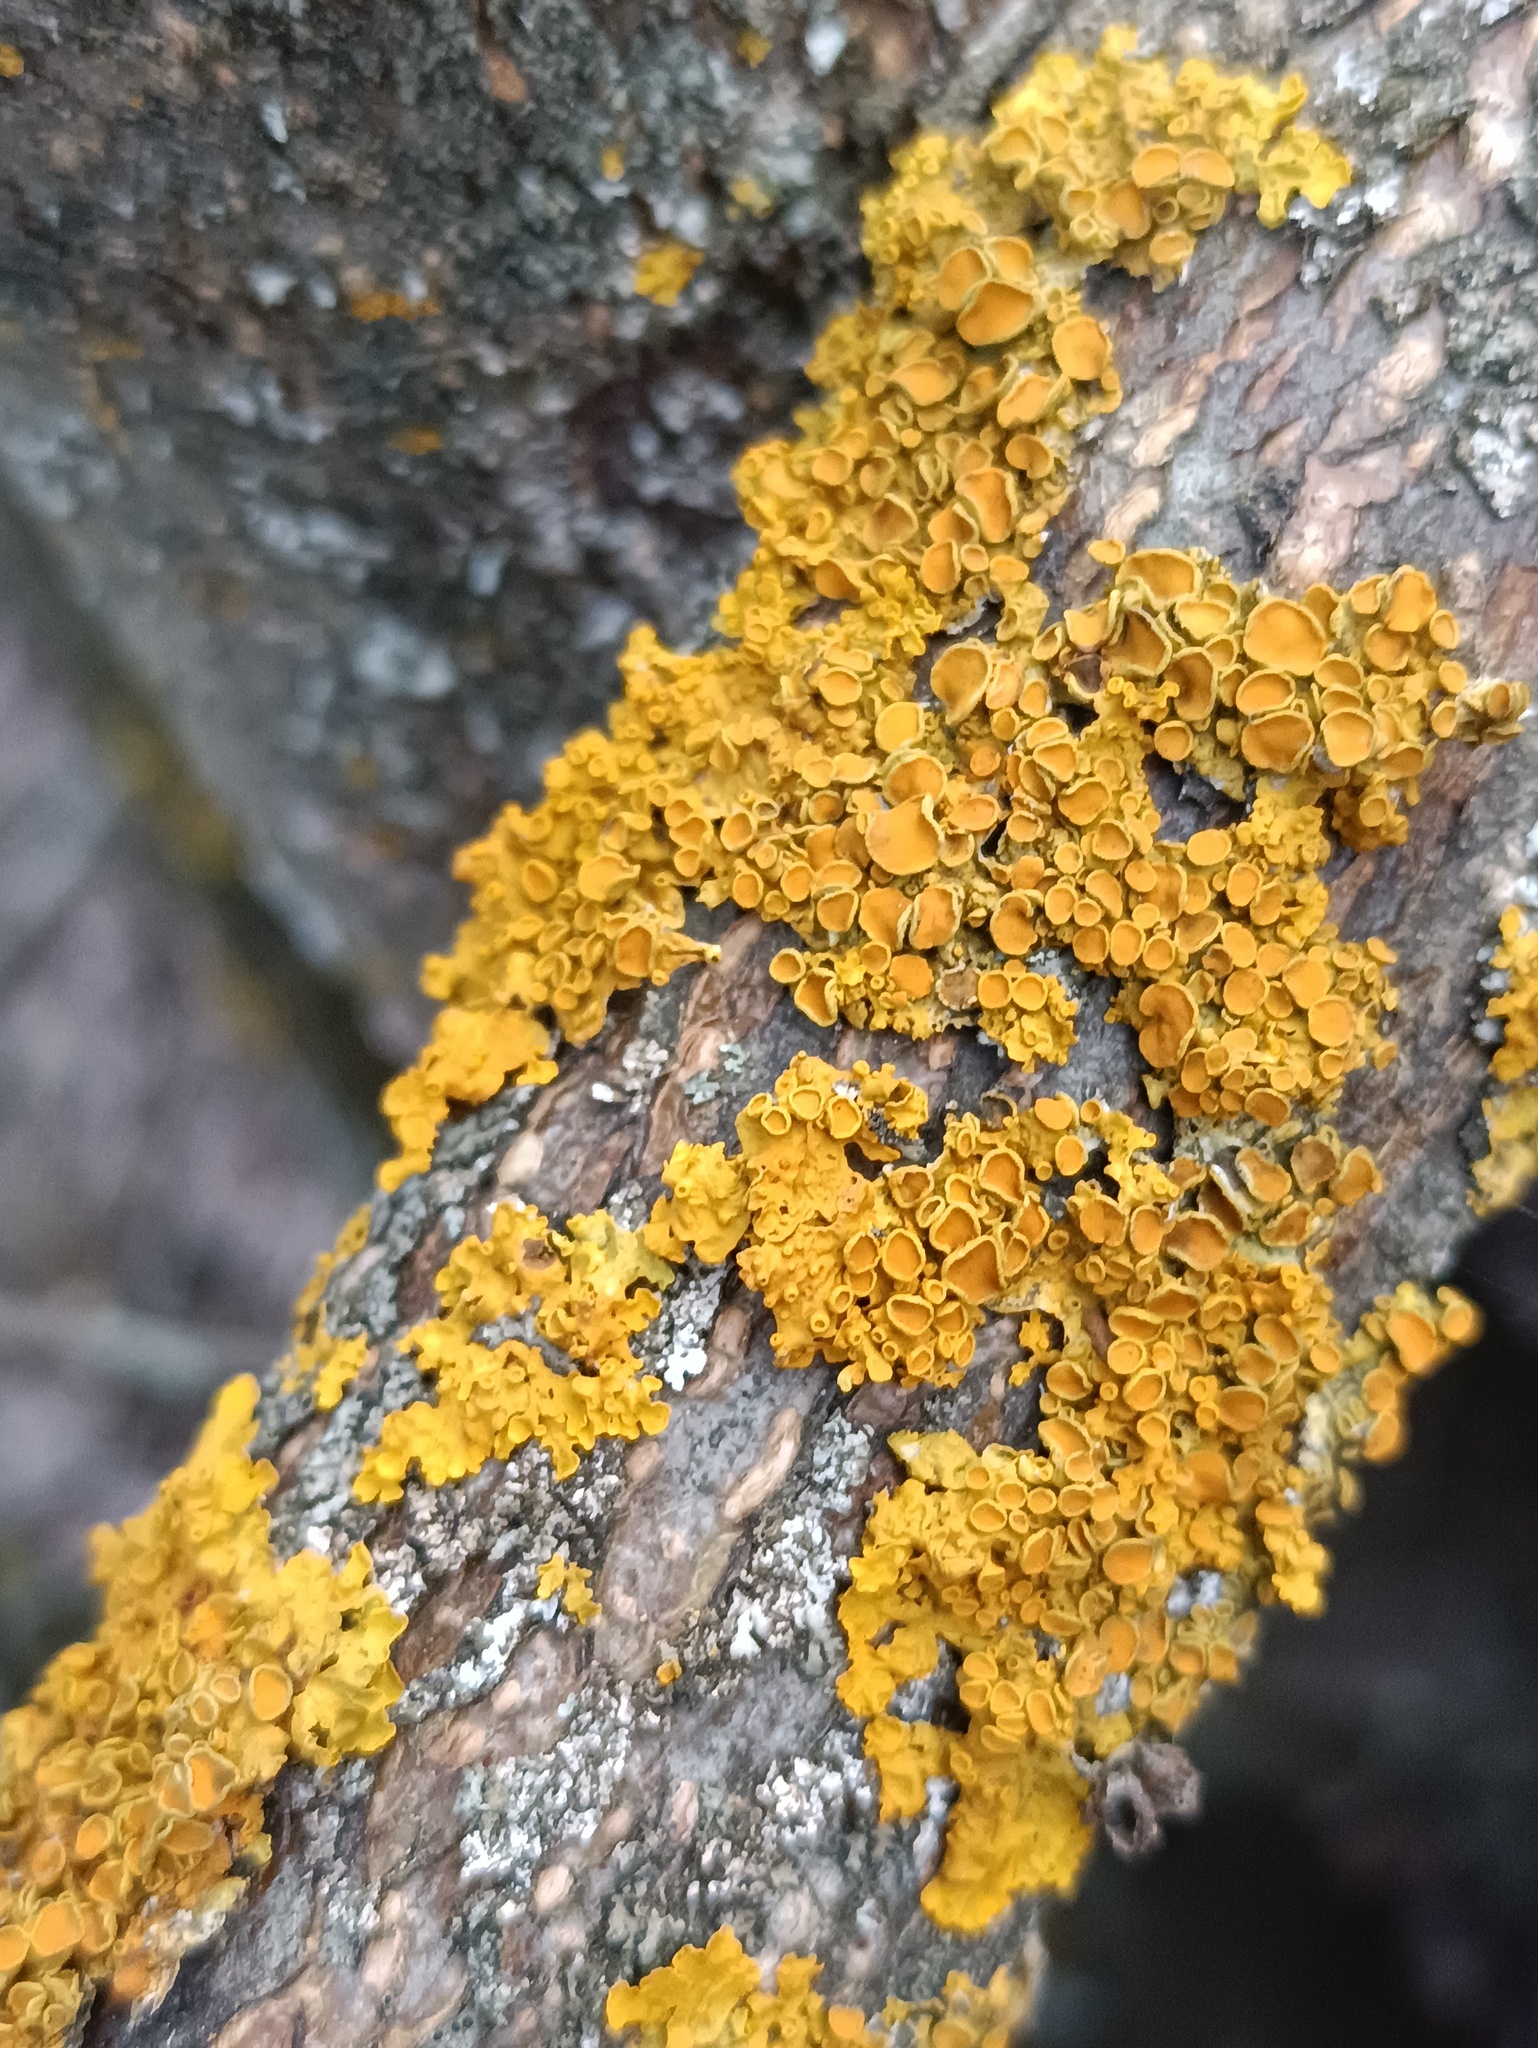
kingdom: Fungi
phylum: Ascomycota
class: Lecanoromycetes
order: Teloschistales
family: Teloschistaceae
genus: Xanthoria
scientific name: Xanthoria parietina
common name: Common orange lichen
